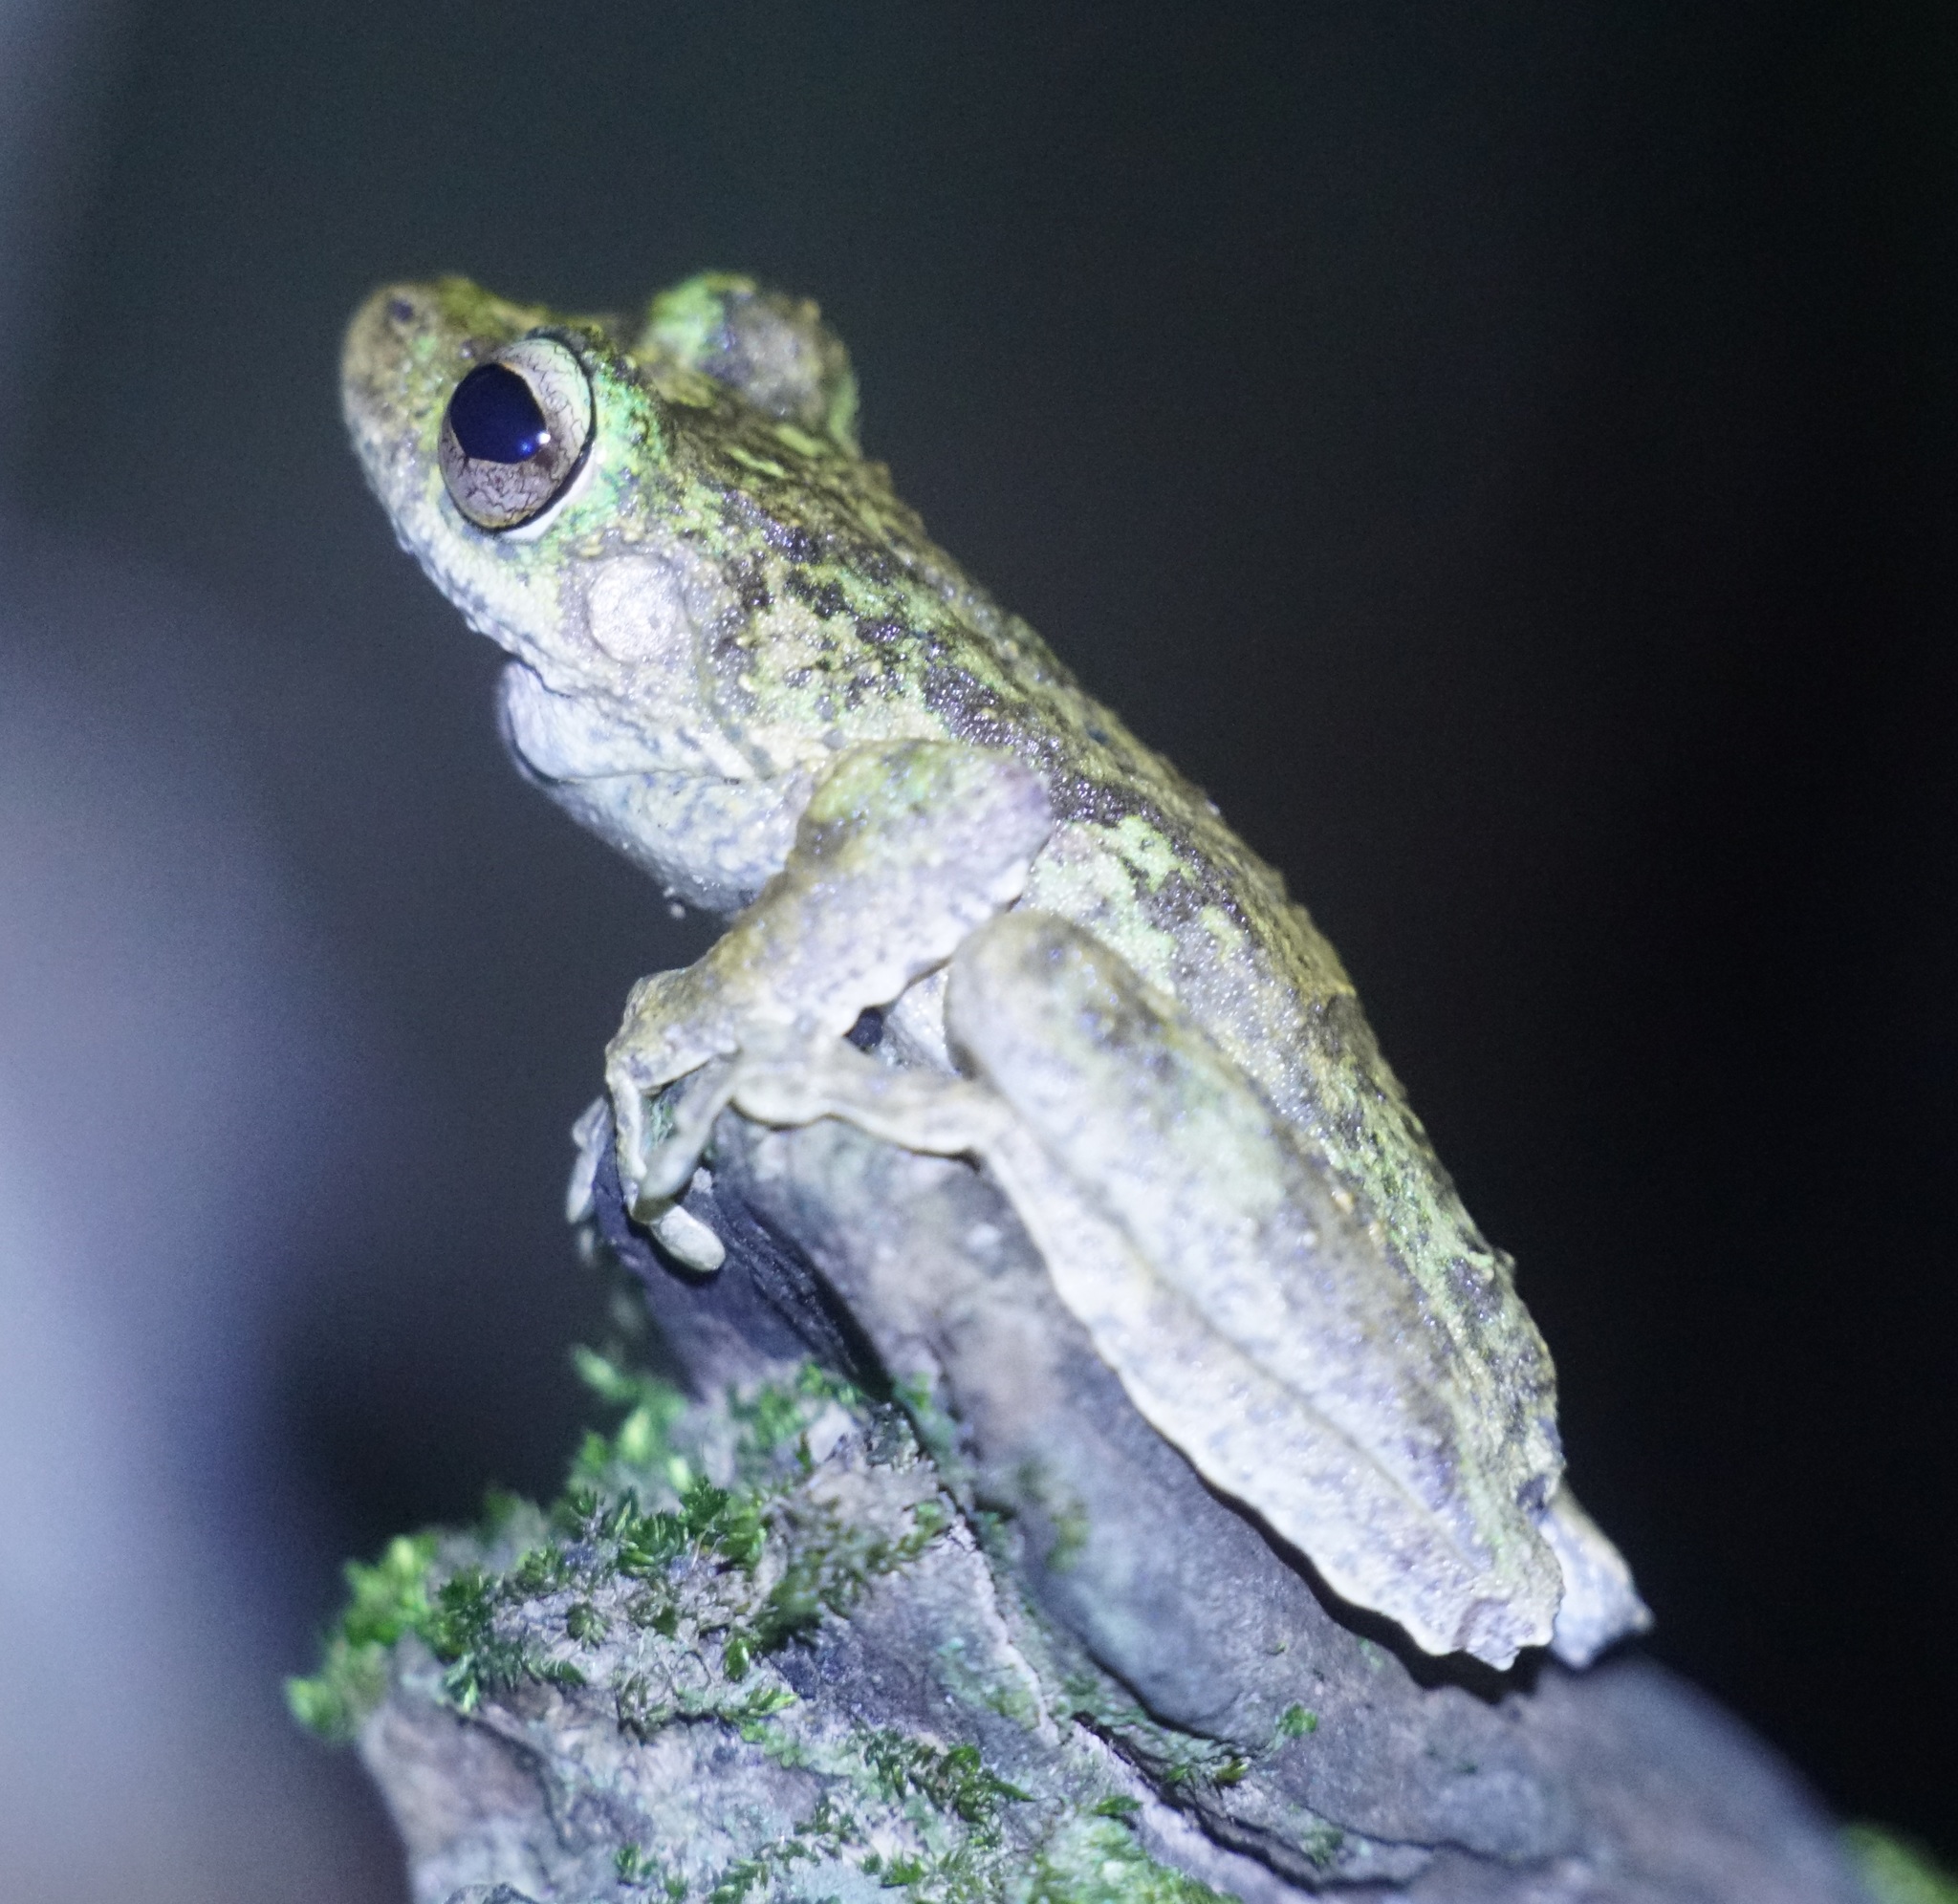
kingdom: Animalia
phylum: Chordata
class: Amphibia
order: Anura
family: Pelodryadidae
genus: Ranoidea
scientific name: Ranoidea myola
